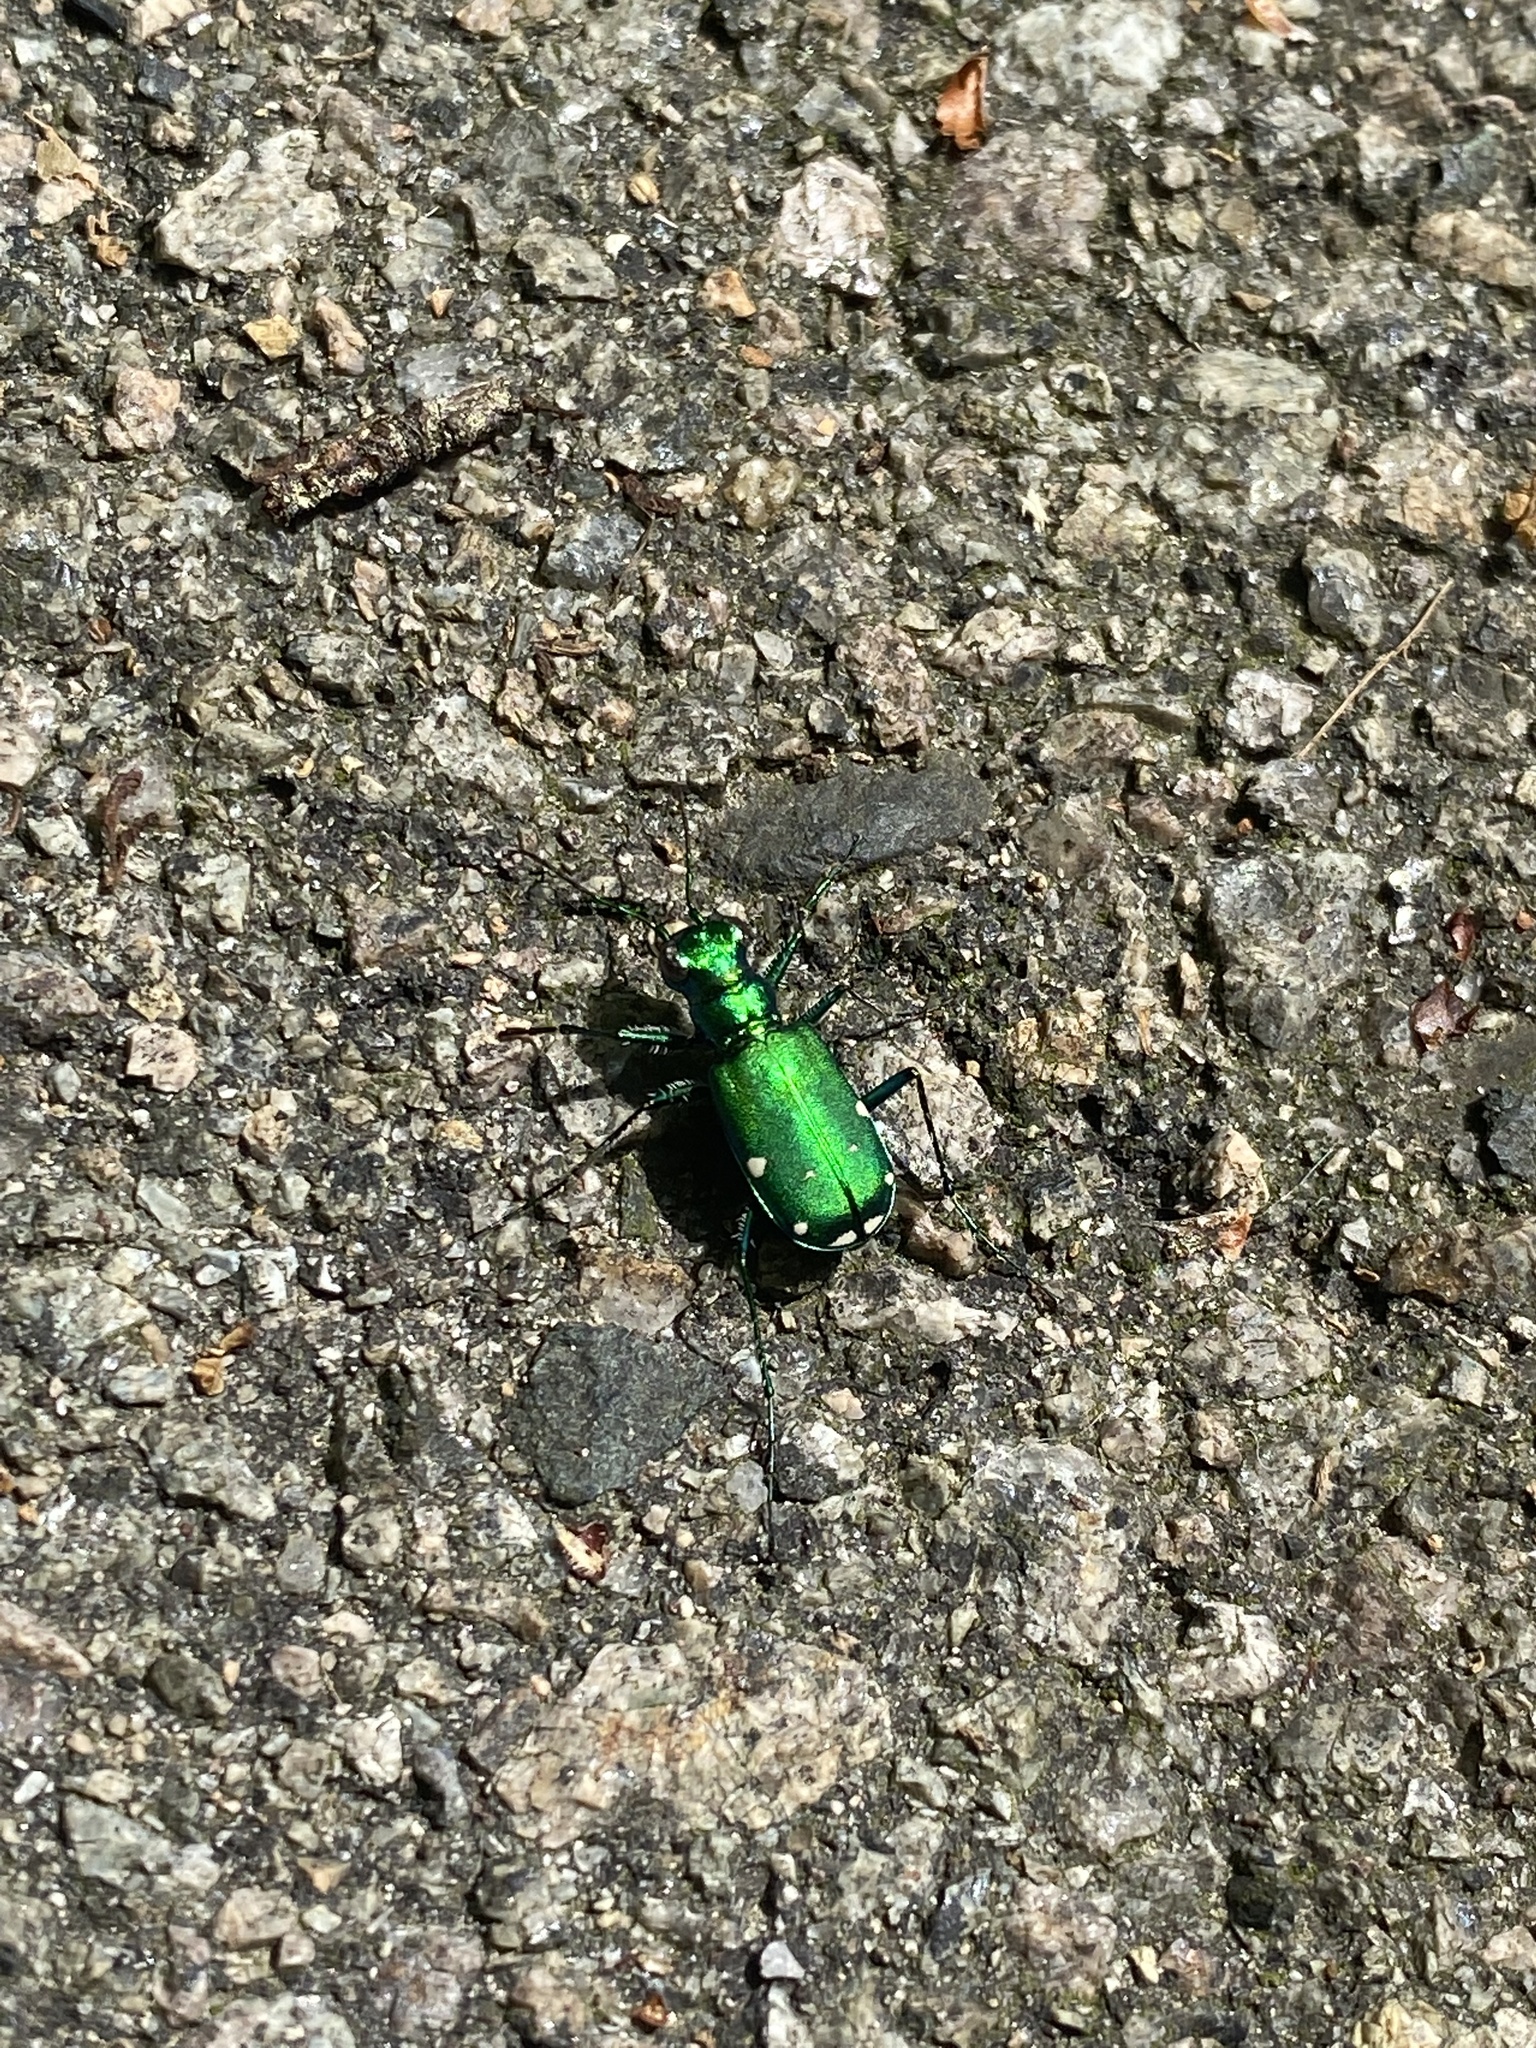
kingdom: Animalia
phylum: Arthropoda
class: Insecta
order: Coleoptera
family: Carabidae
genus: Cicindela
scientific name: Cicindela sexguttata
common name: Six-spotted tiger beetle
